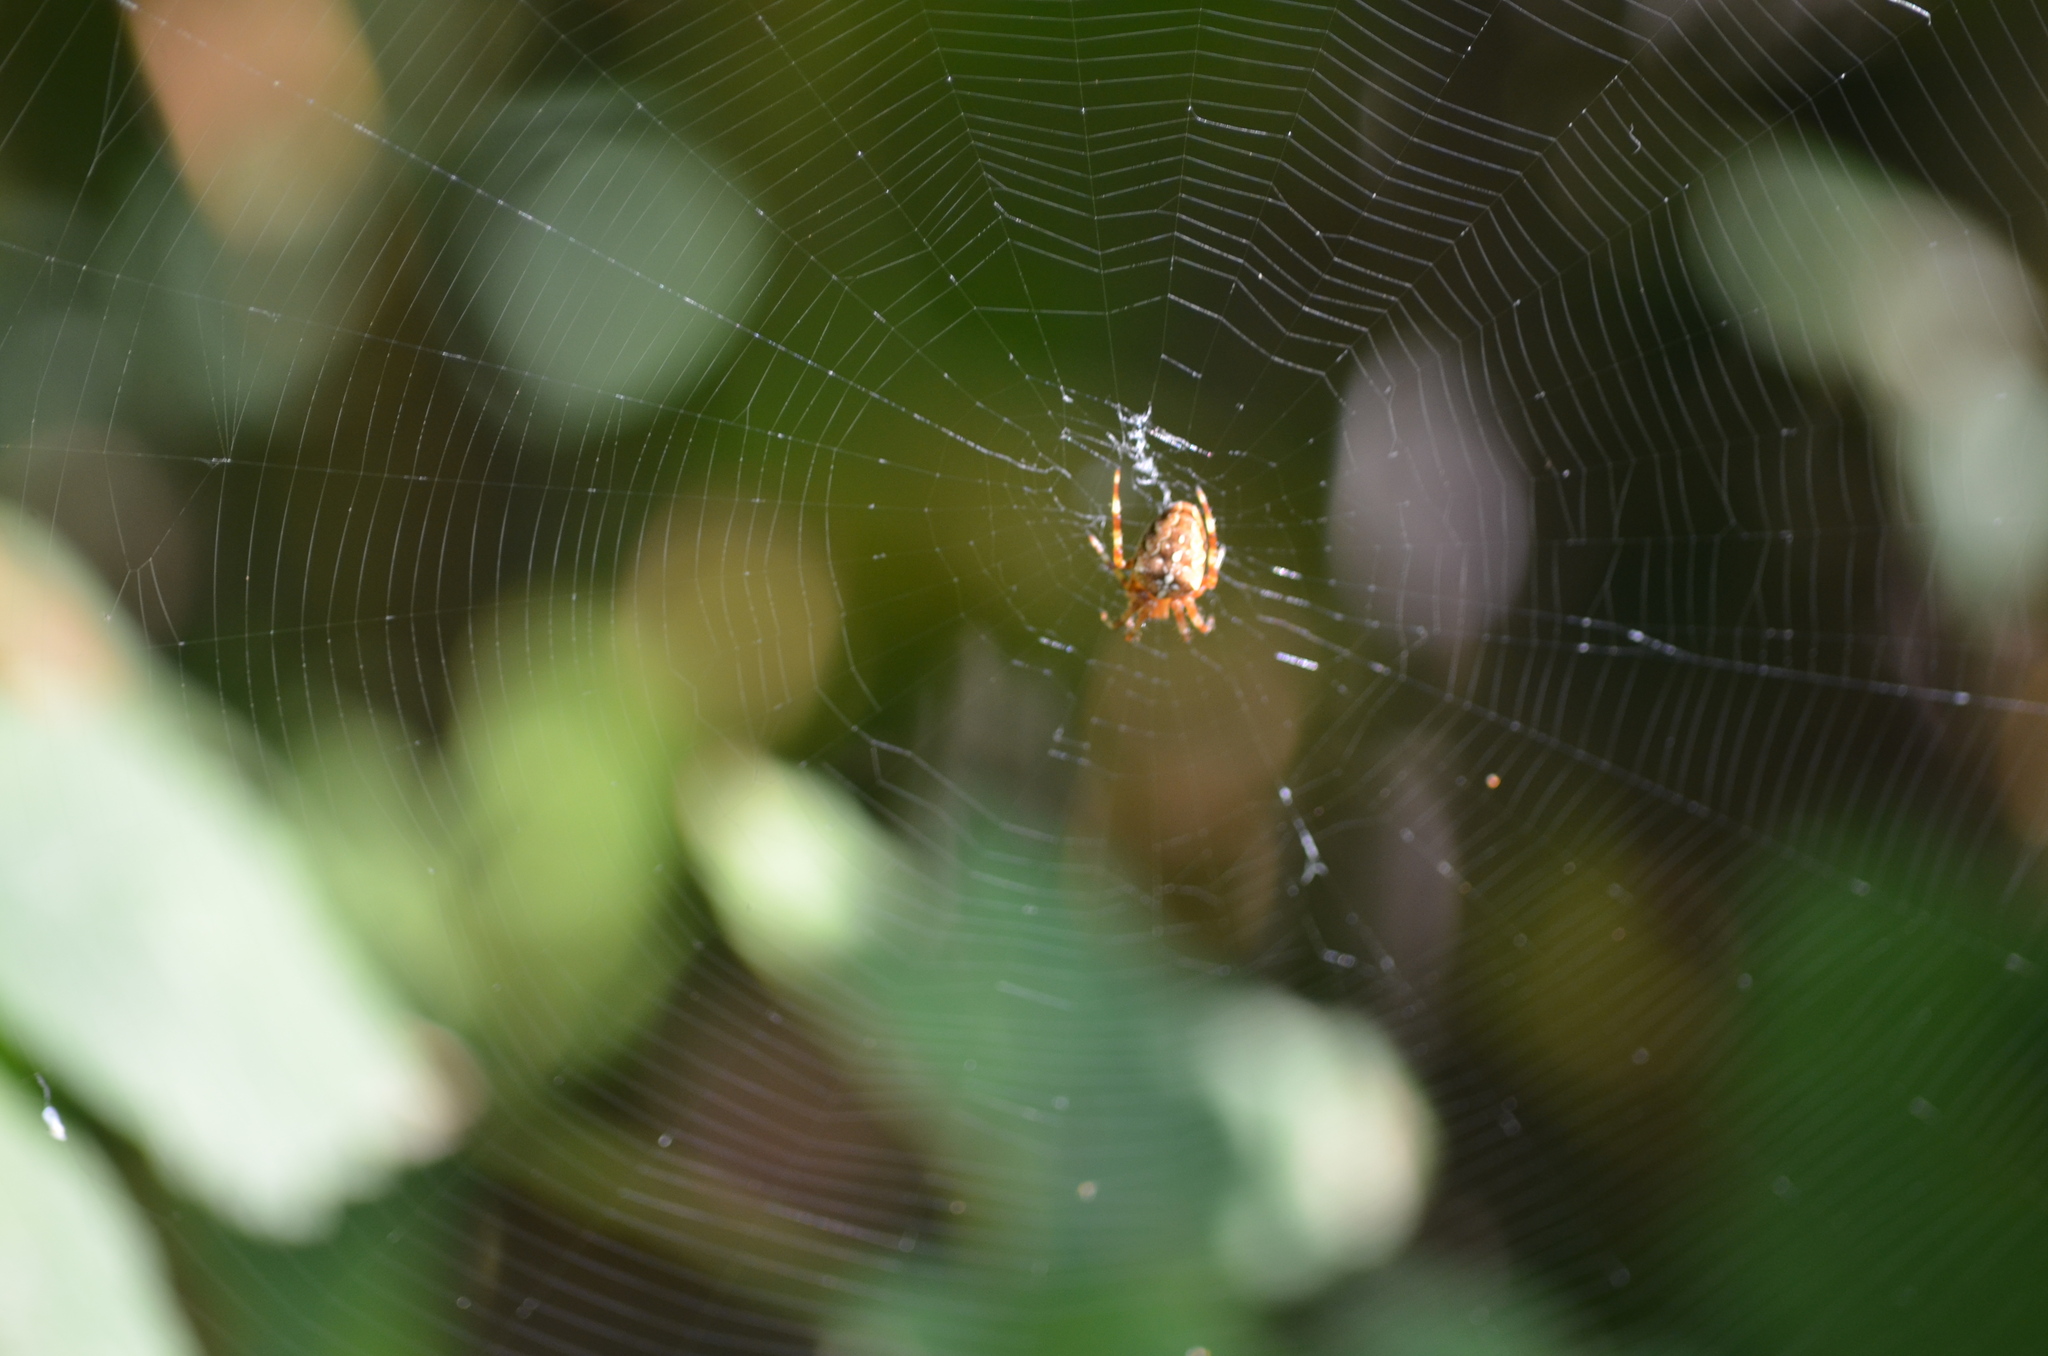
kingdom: Animalia
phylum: Arthropoda
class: Arachnida
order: Araneae
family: Araneidae
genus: Araneus
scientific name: Araneus diadematus
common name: Cross orbweaver
